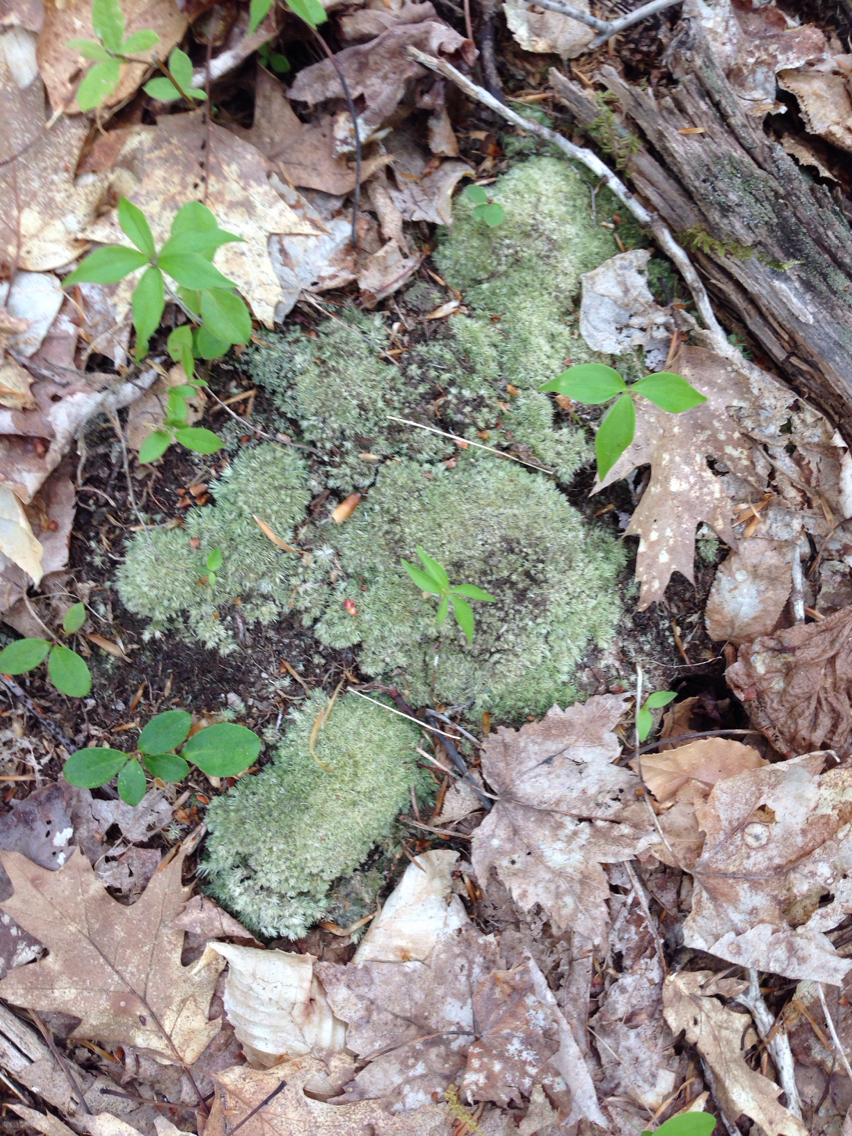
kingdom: Plantae
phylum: Bryophyta
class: Bryopsida
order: Dicranales
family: Leucobryaceae
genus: Leucobryum
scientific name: Leucobryum glaucum
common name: Large white-moss
